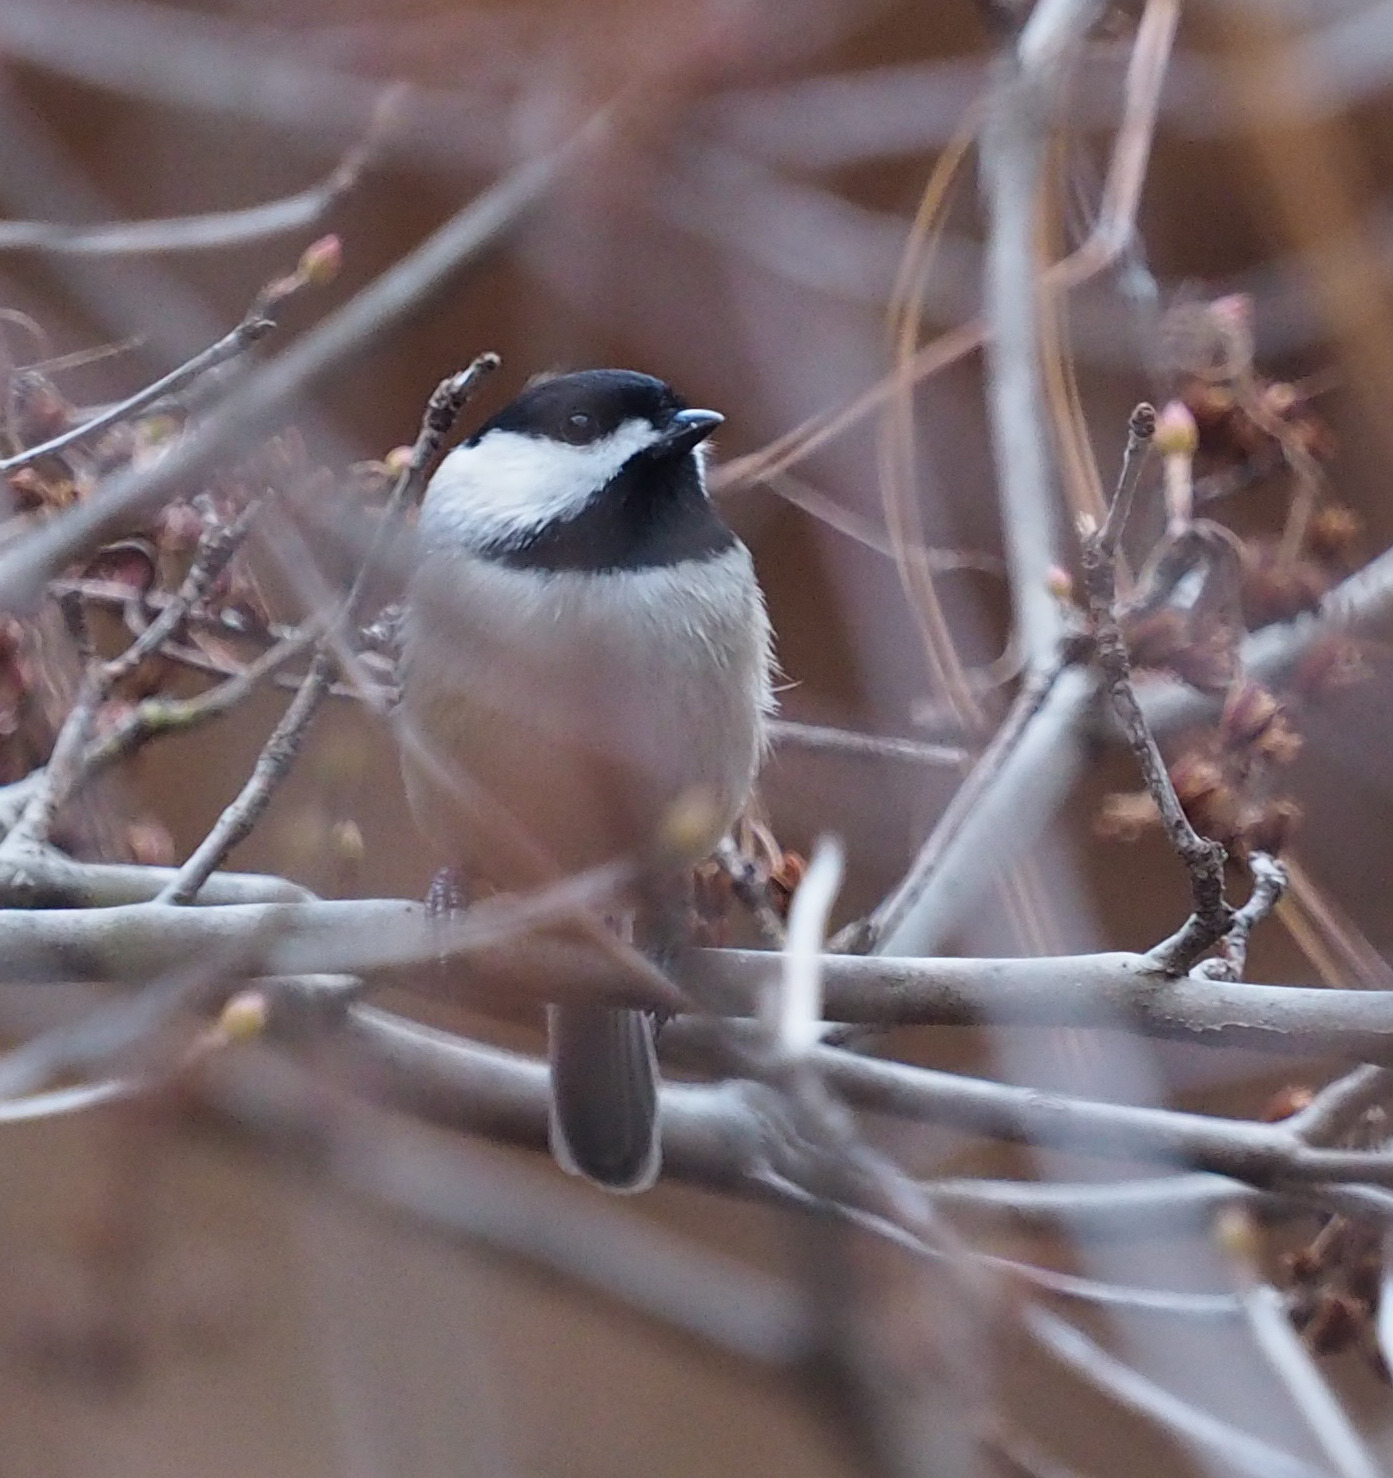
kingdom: Animalia
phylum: Chordata
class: Aves
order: Passeriformes
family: Paridae
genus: Poecile
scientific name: Poecile carolinensis
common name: Carolina chickadee
